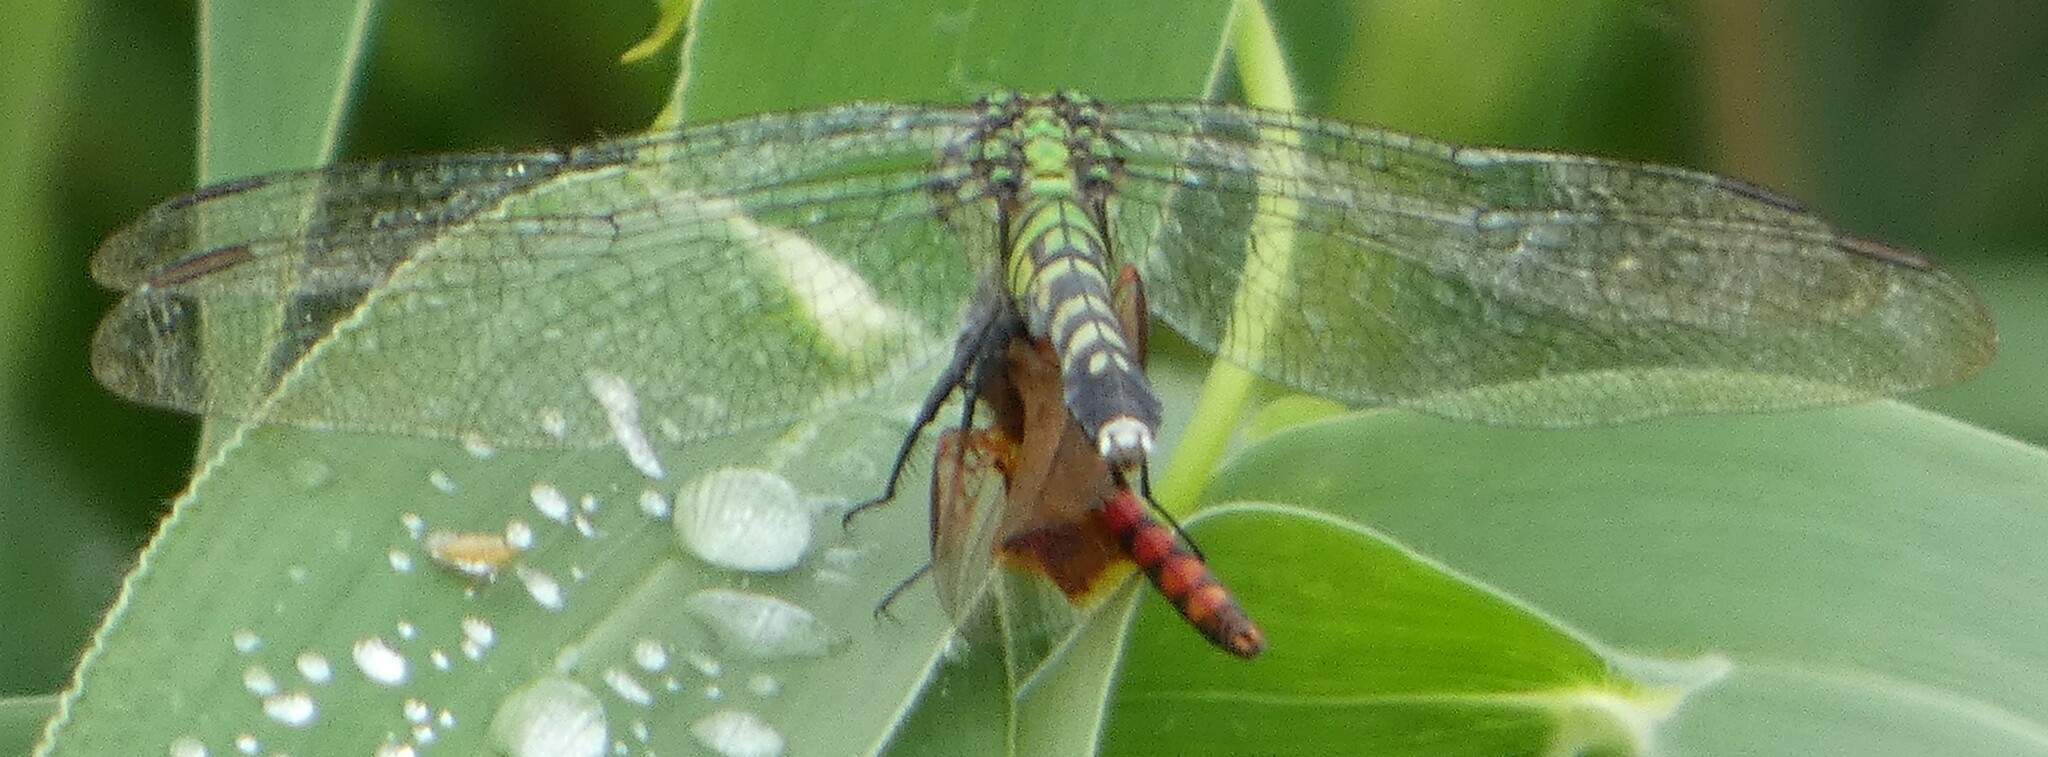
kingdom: Animalia
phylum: Arthropoda
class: Insecta
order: Odonata
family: Libellulidae
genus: Celithemis
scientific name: Celithemis elisa
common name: Calico pennant
